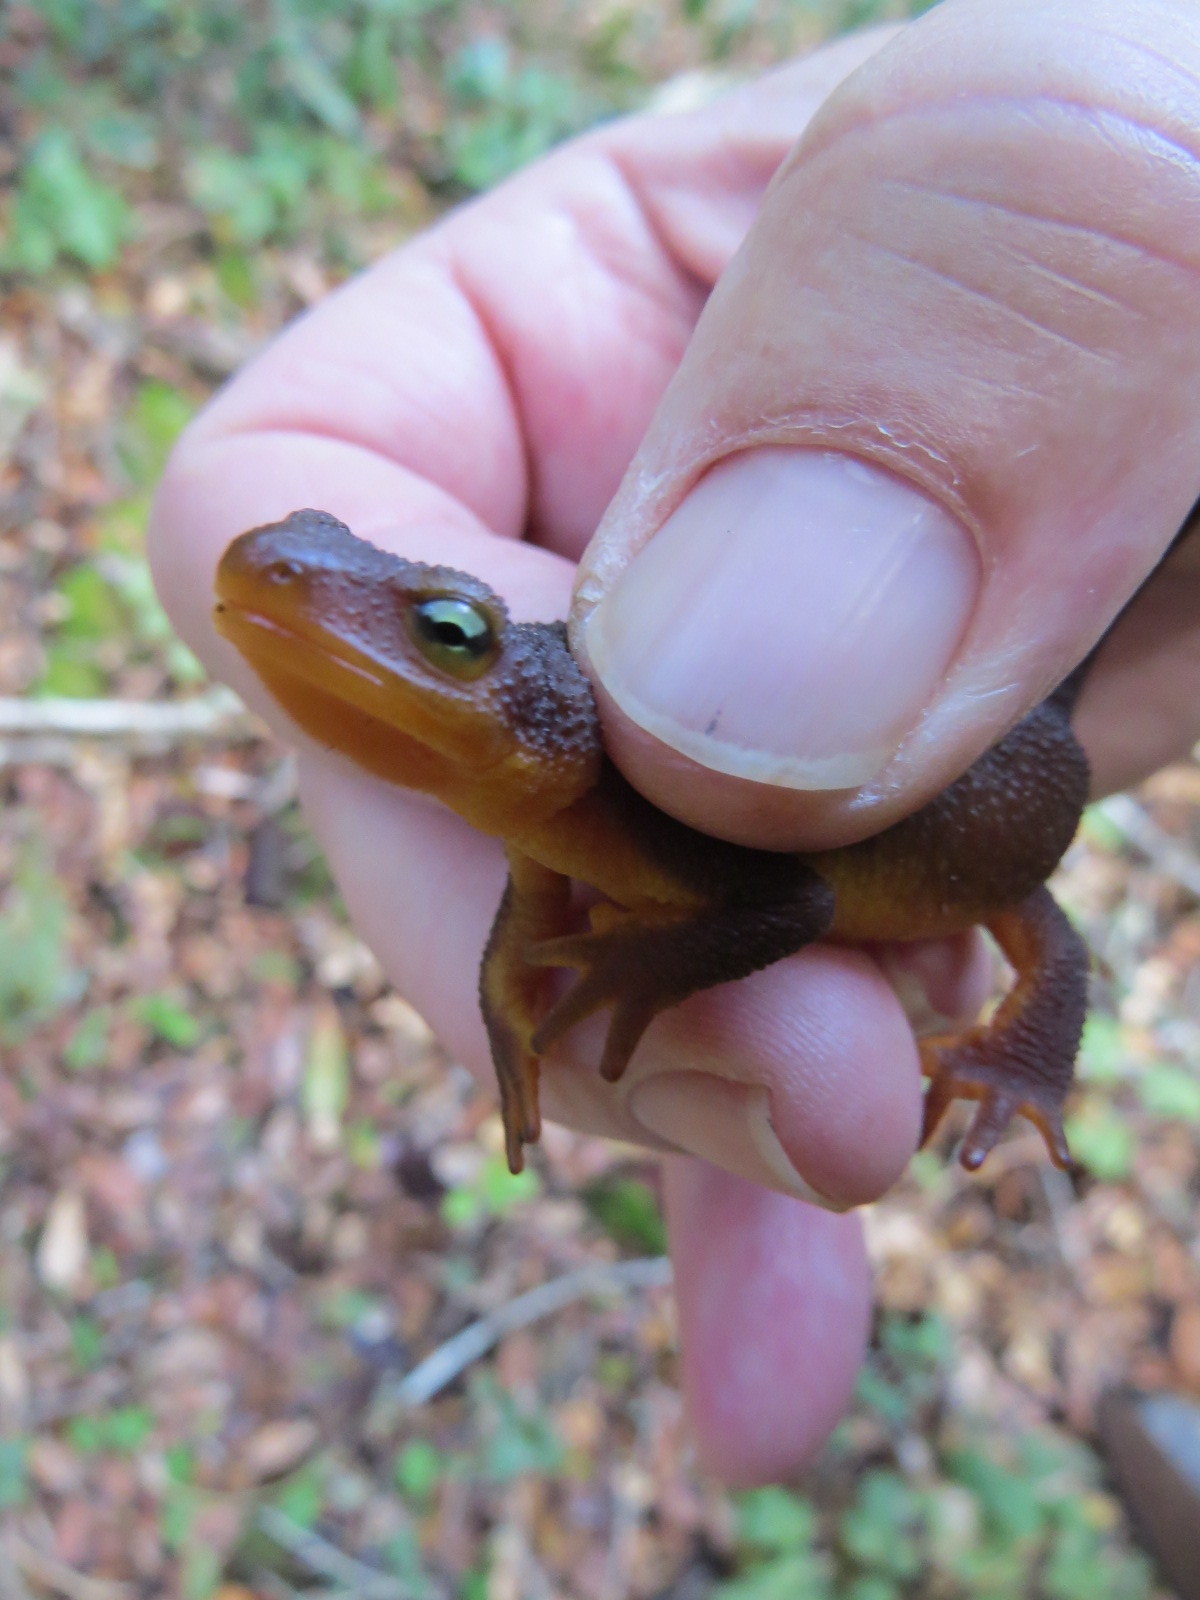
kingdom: Animalia
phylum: Chordata
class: Amphibia
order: Caudata
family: Salamandridae
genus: Taricha
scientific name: Taricha torosa
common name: California newt
